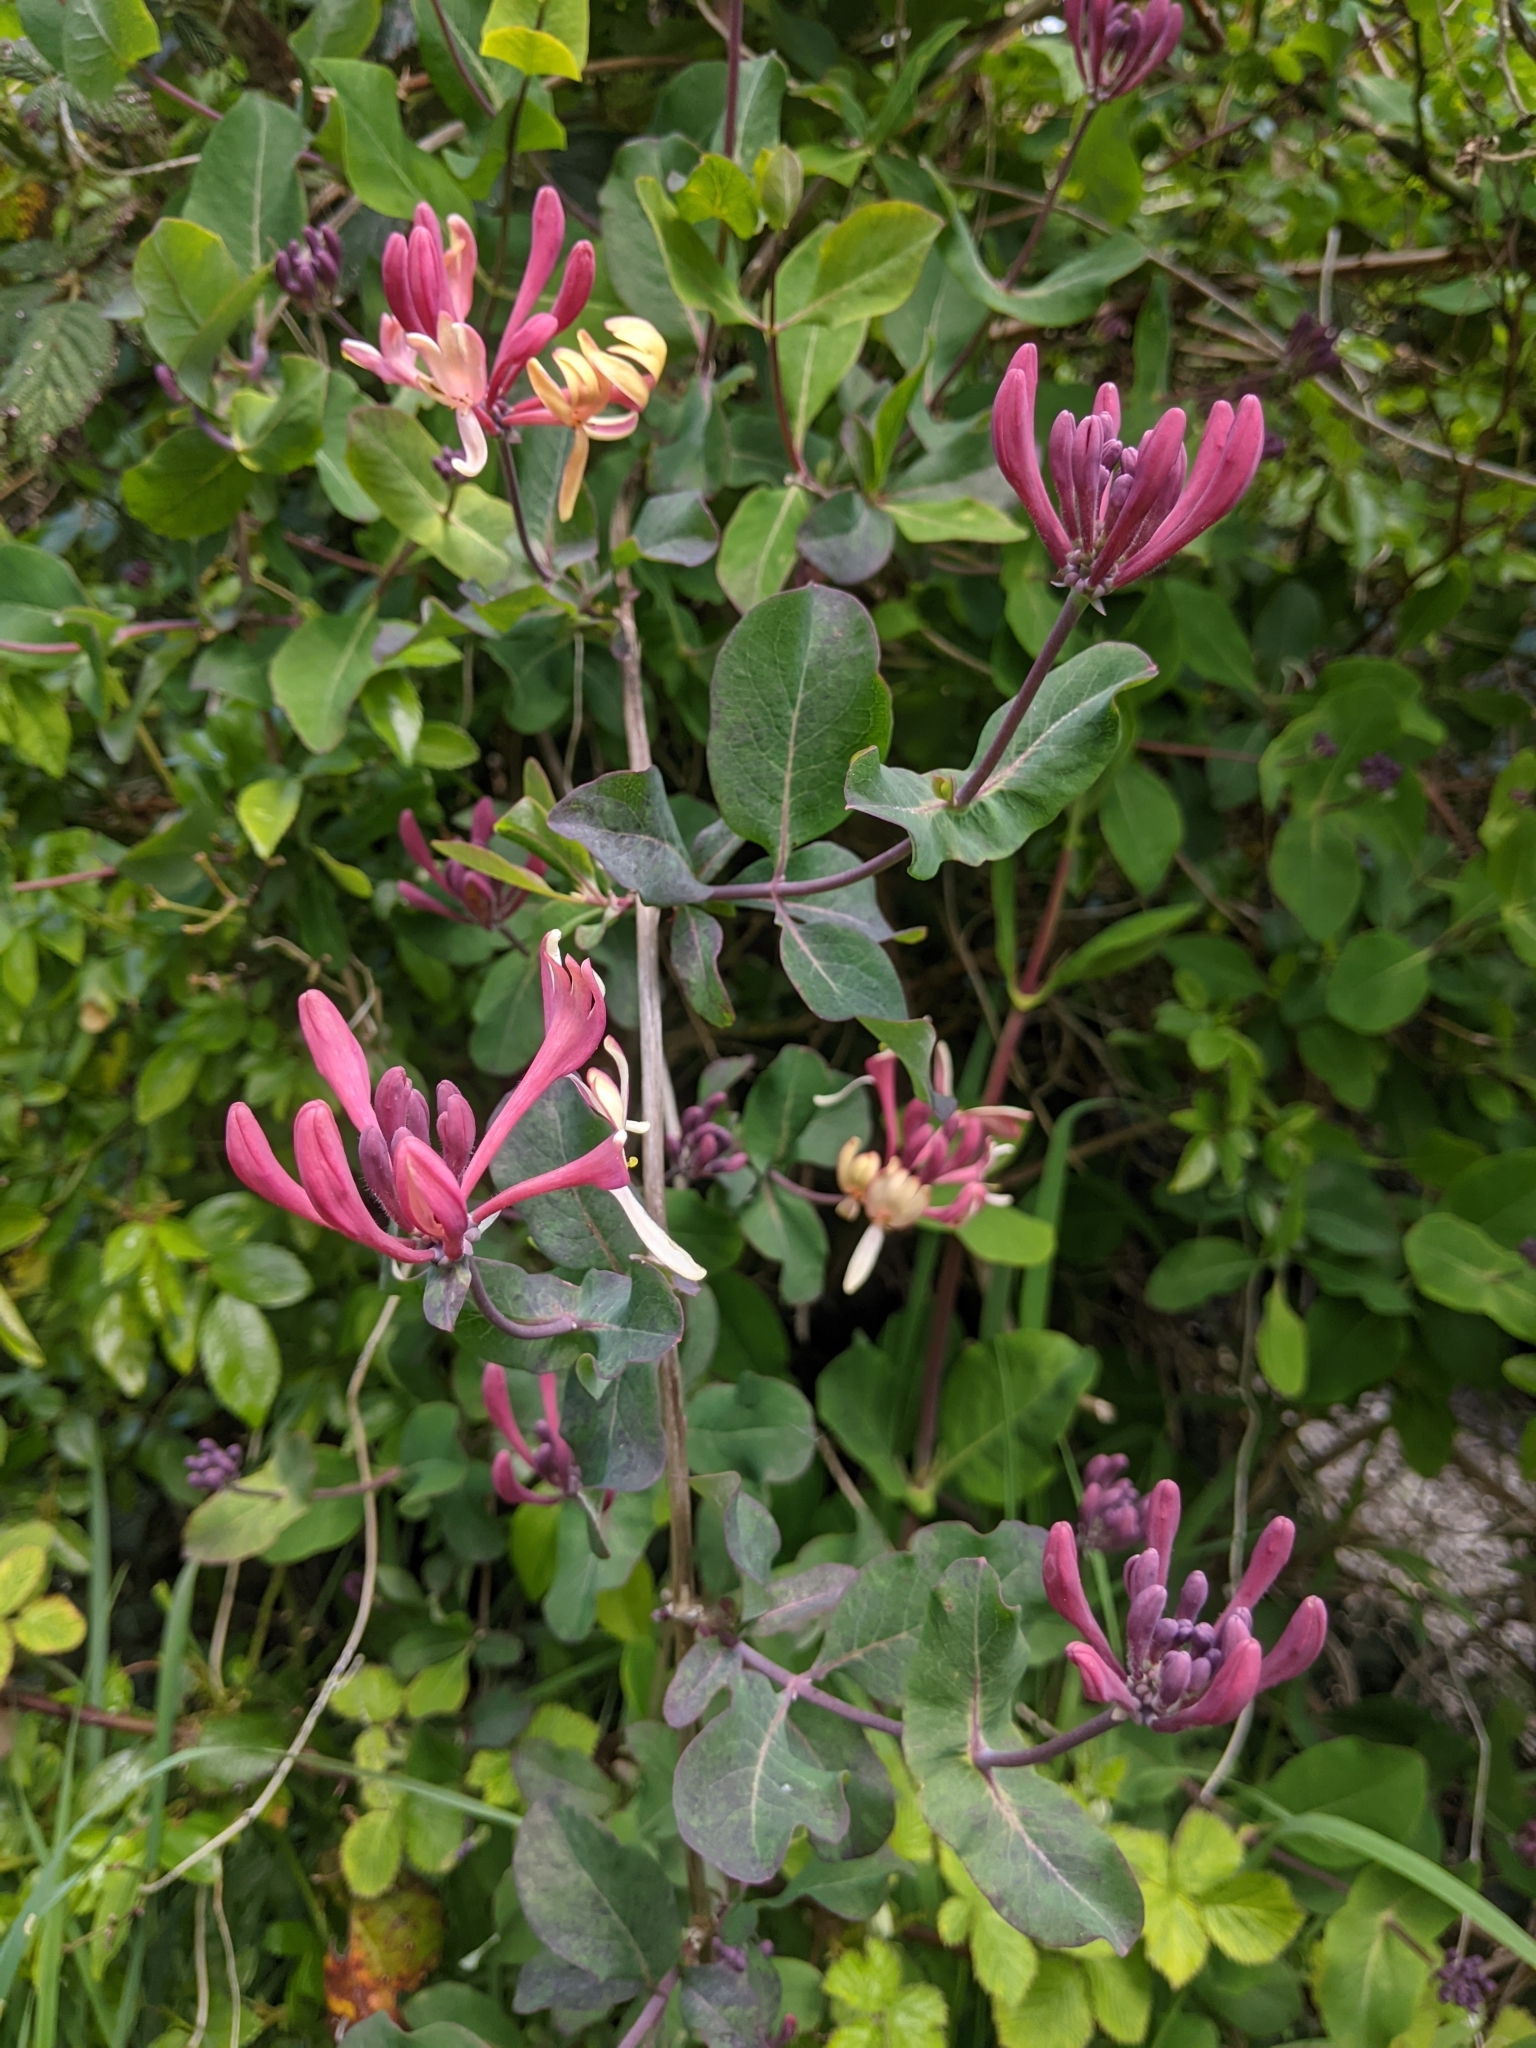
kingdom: Plantae
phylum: Tracheophyta
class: Magnoliopsida
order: Dipsacales
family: Caprifoliaceae
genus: Lonicera
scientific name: Lonicera periclymenum
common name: European honeysuckle
